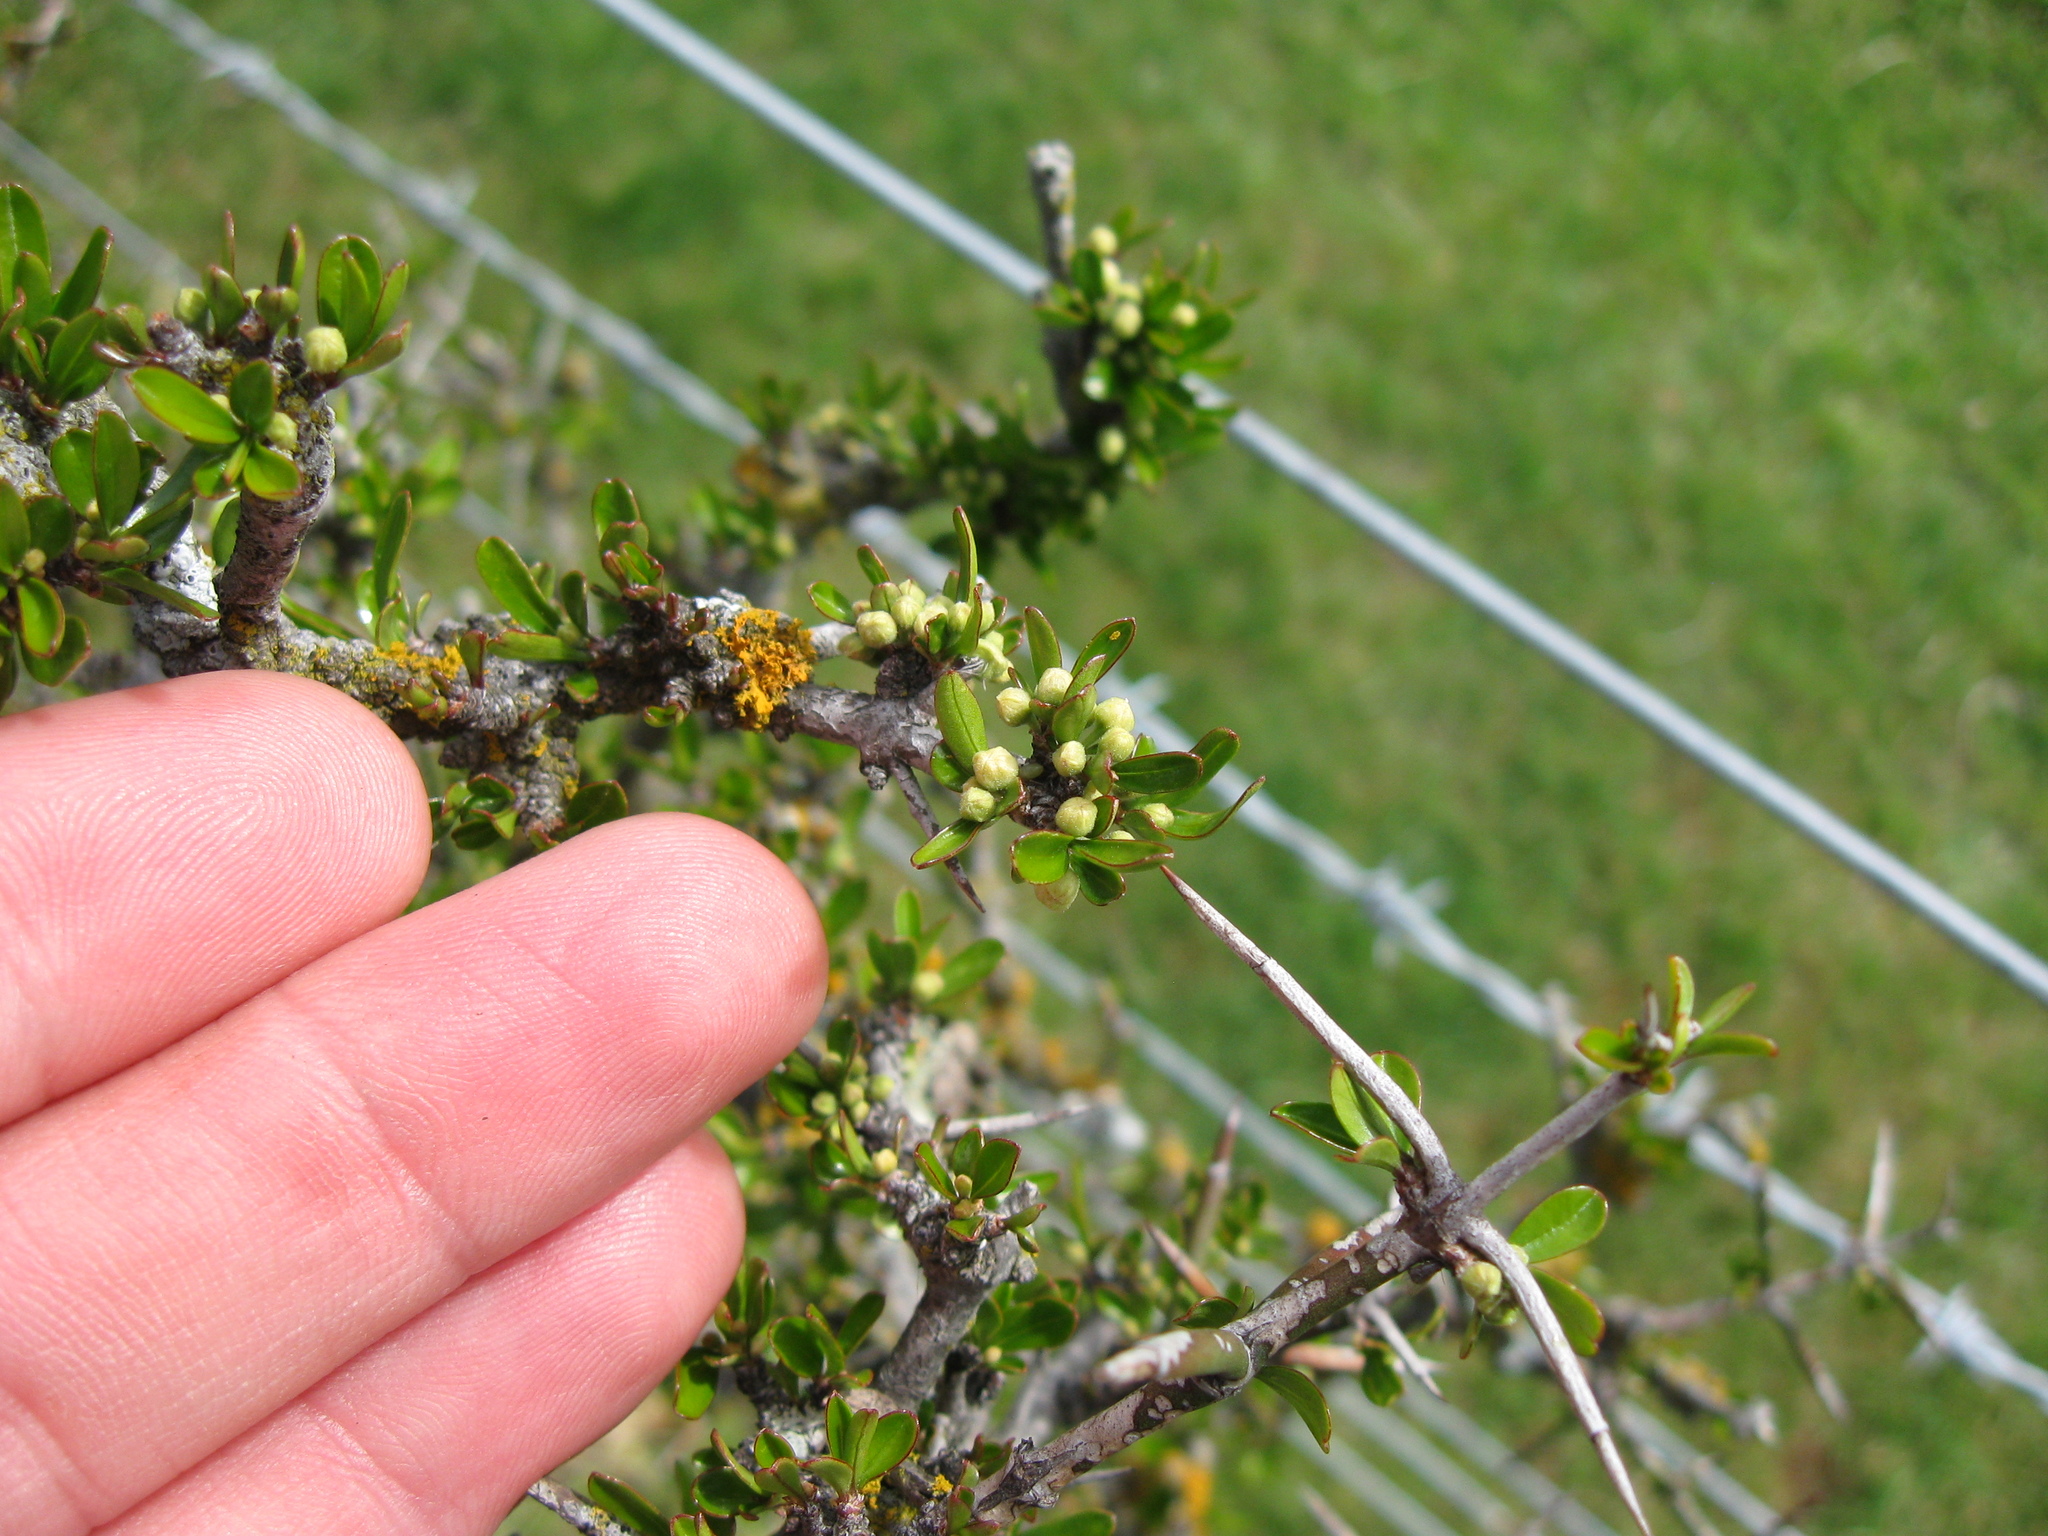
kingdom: Plantae
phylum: Tracheophyta
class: Magnoliopsida
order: Rosales
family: Rhamnaceae
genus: Discaria
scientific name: Discaria toumatou
